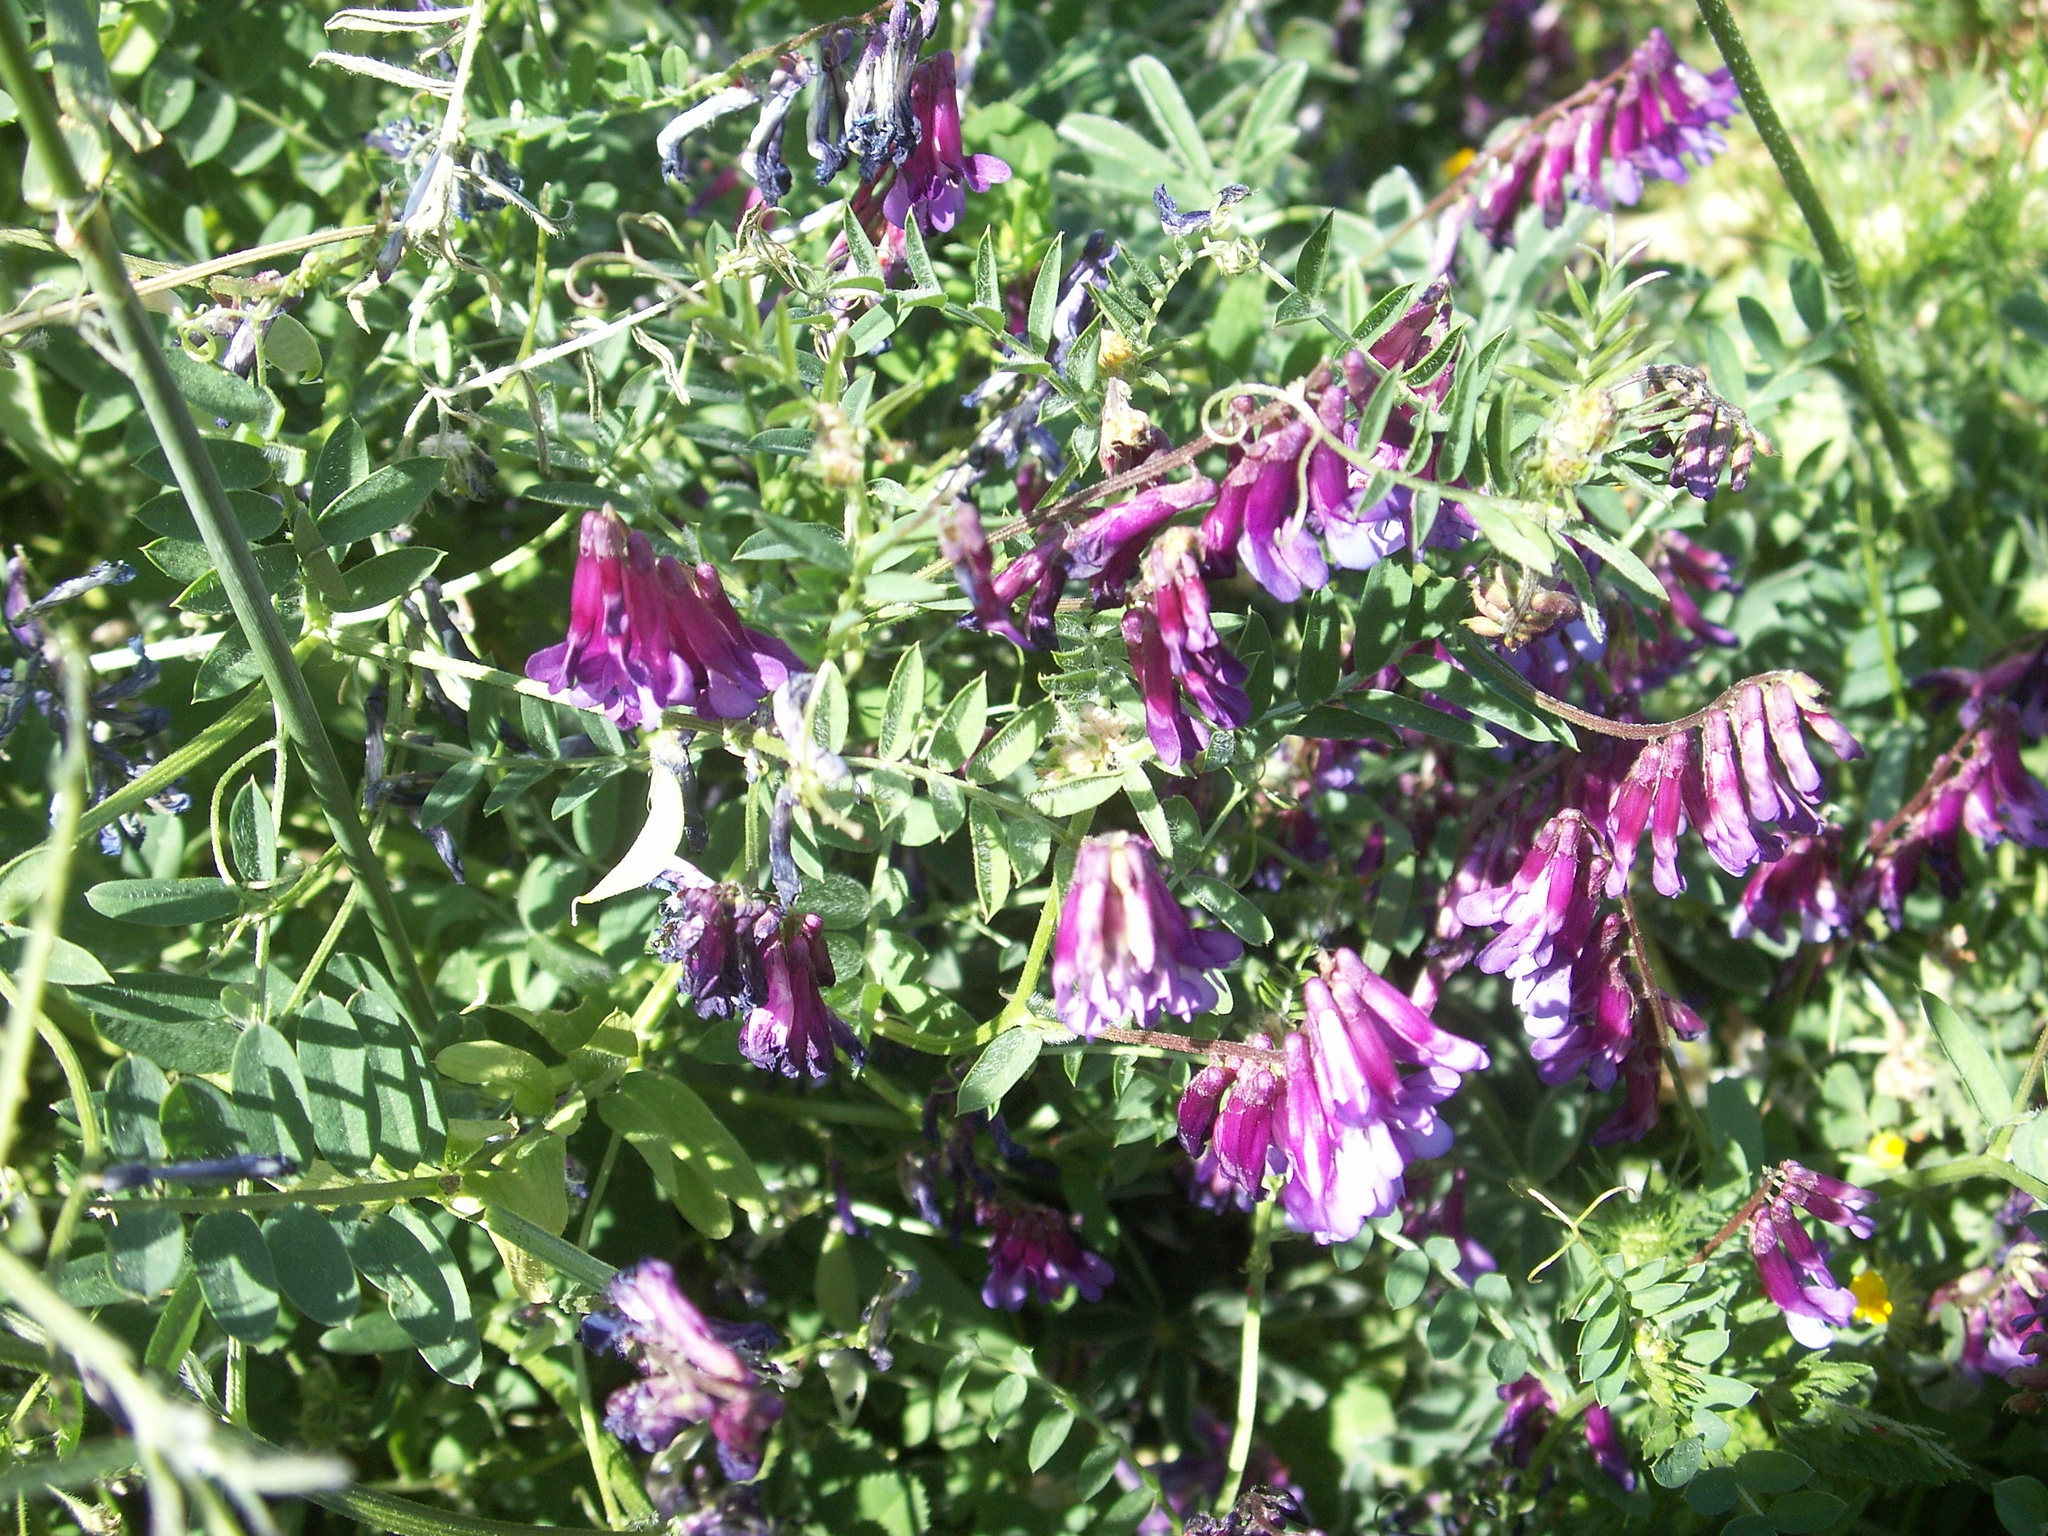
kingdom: Plantae
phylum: Tracheophyta
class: Magnoliopsida
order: Fabales
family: Fabaceae
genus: Vicia
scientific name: Vicia villosa
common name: Fodder vetch
